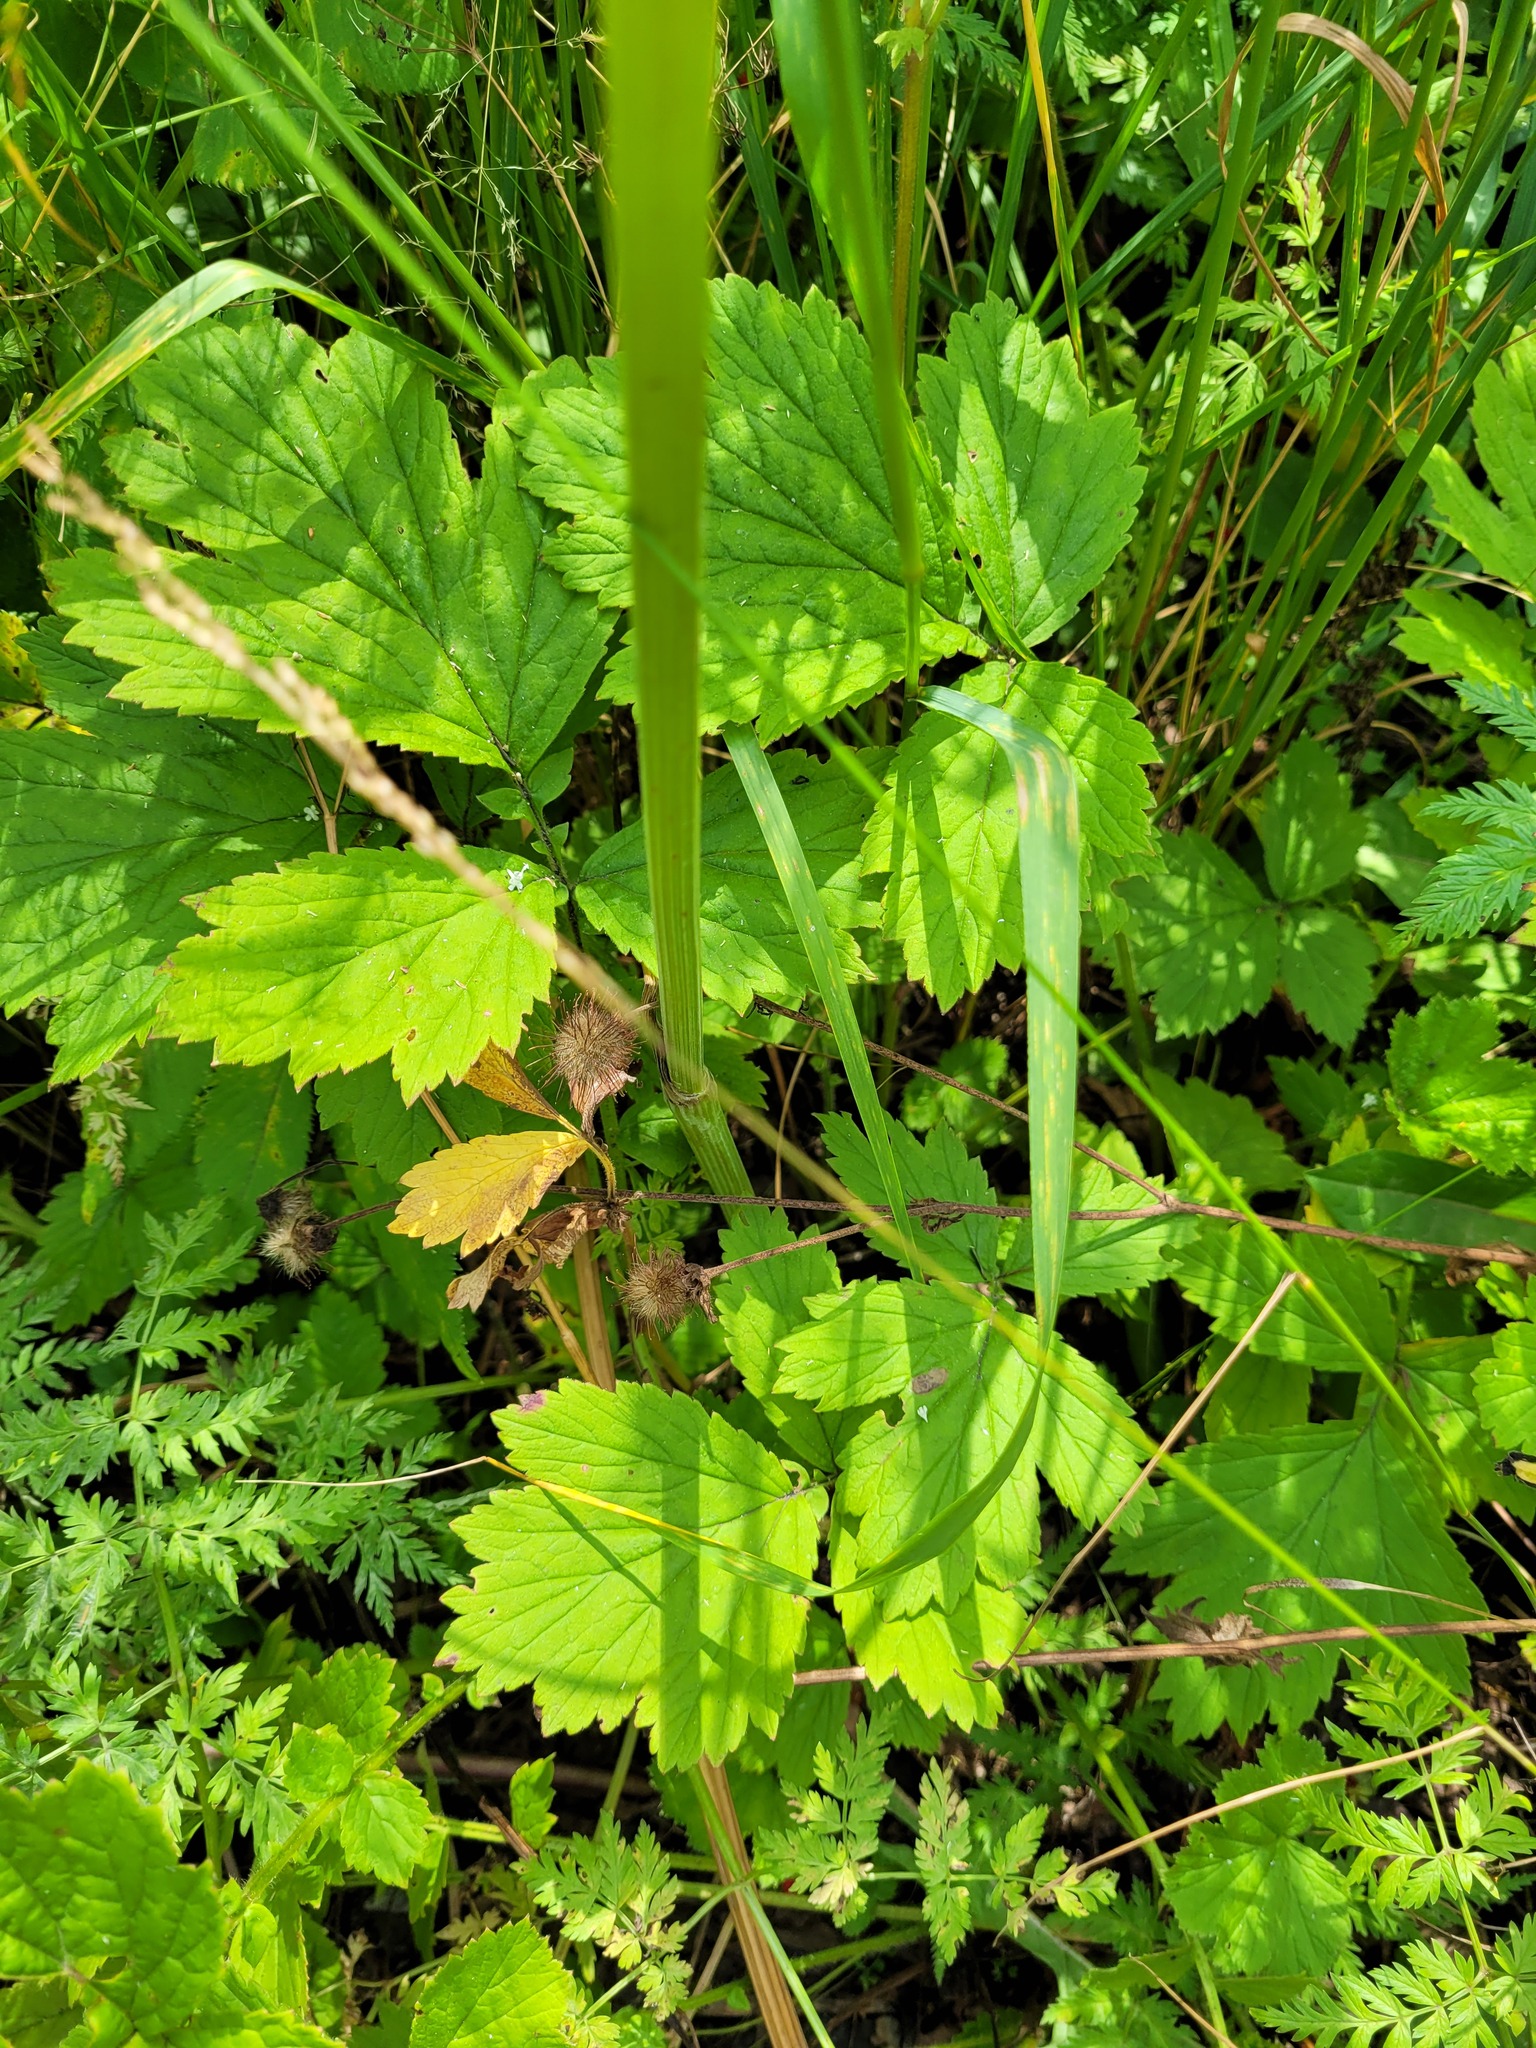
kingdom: Plantae
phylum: Tracheophyta
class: Magnoliopsida
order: Rosales
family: Rosaceae
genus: Geum
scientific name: Geum rivale
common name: Water avens
